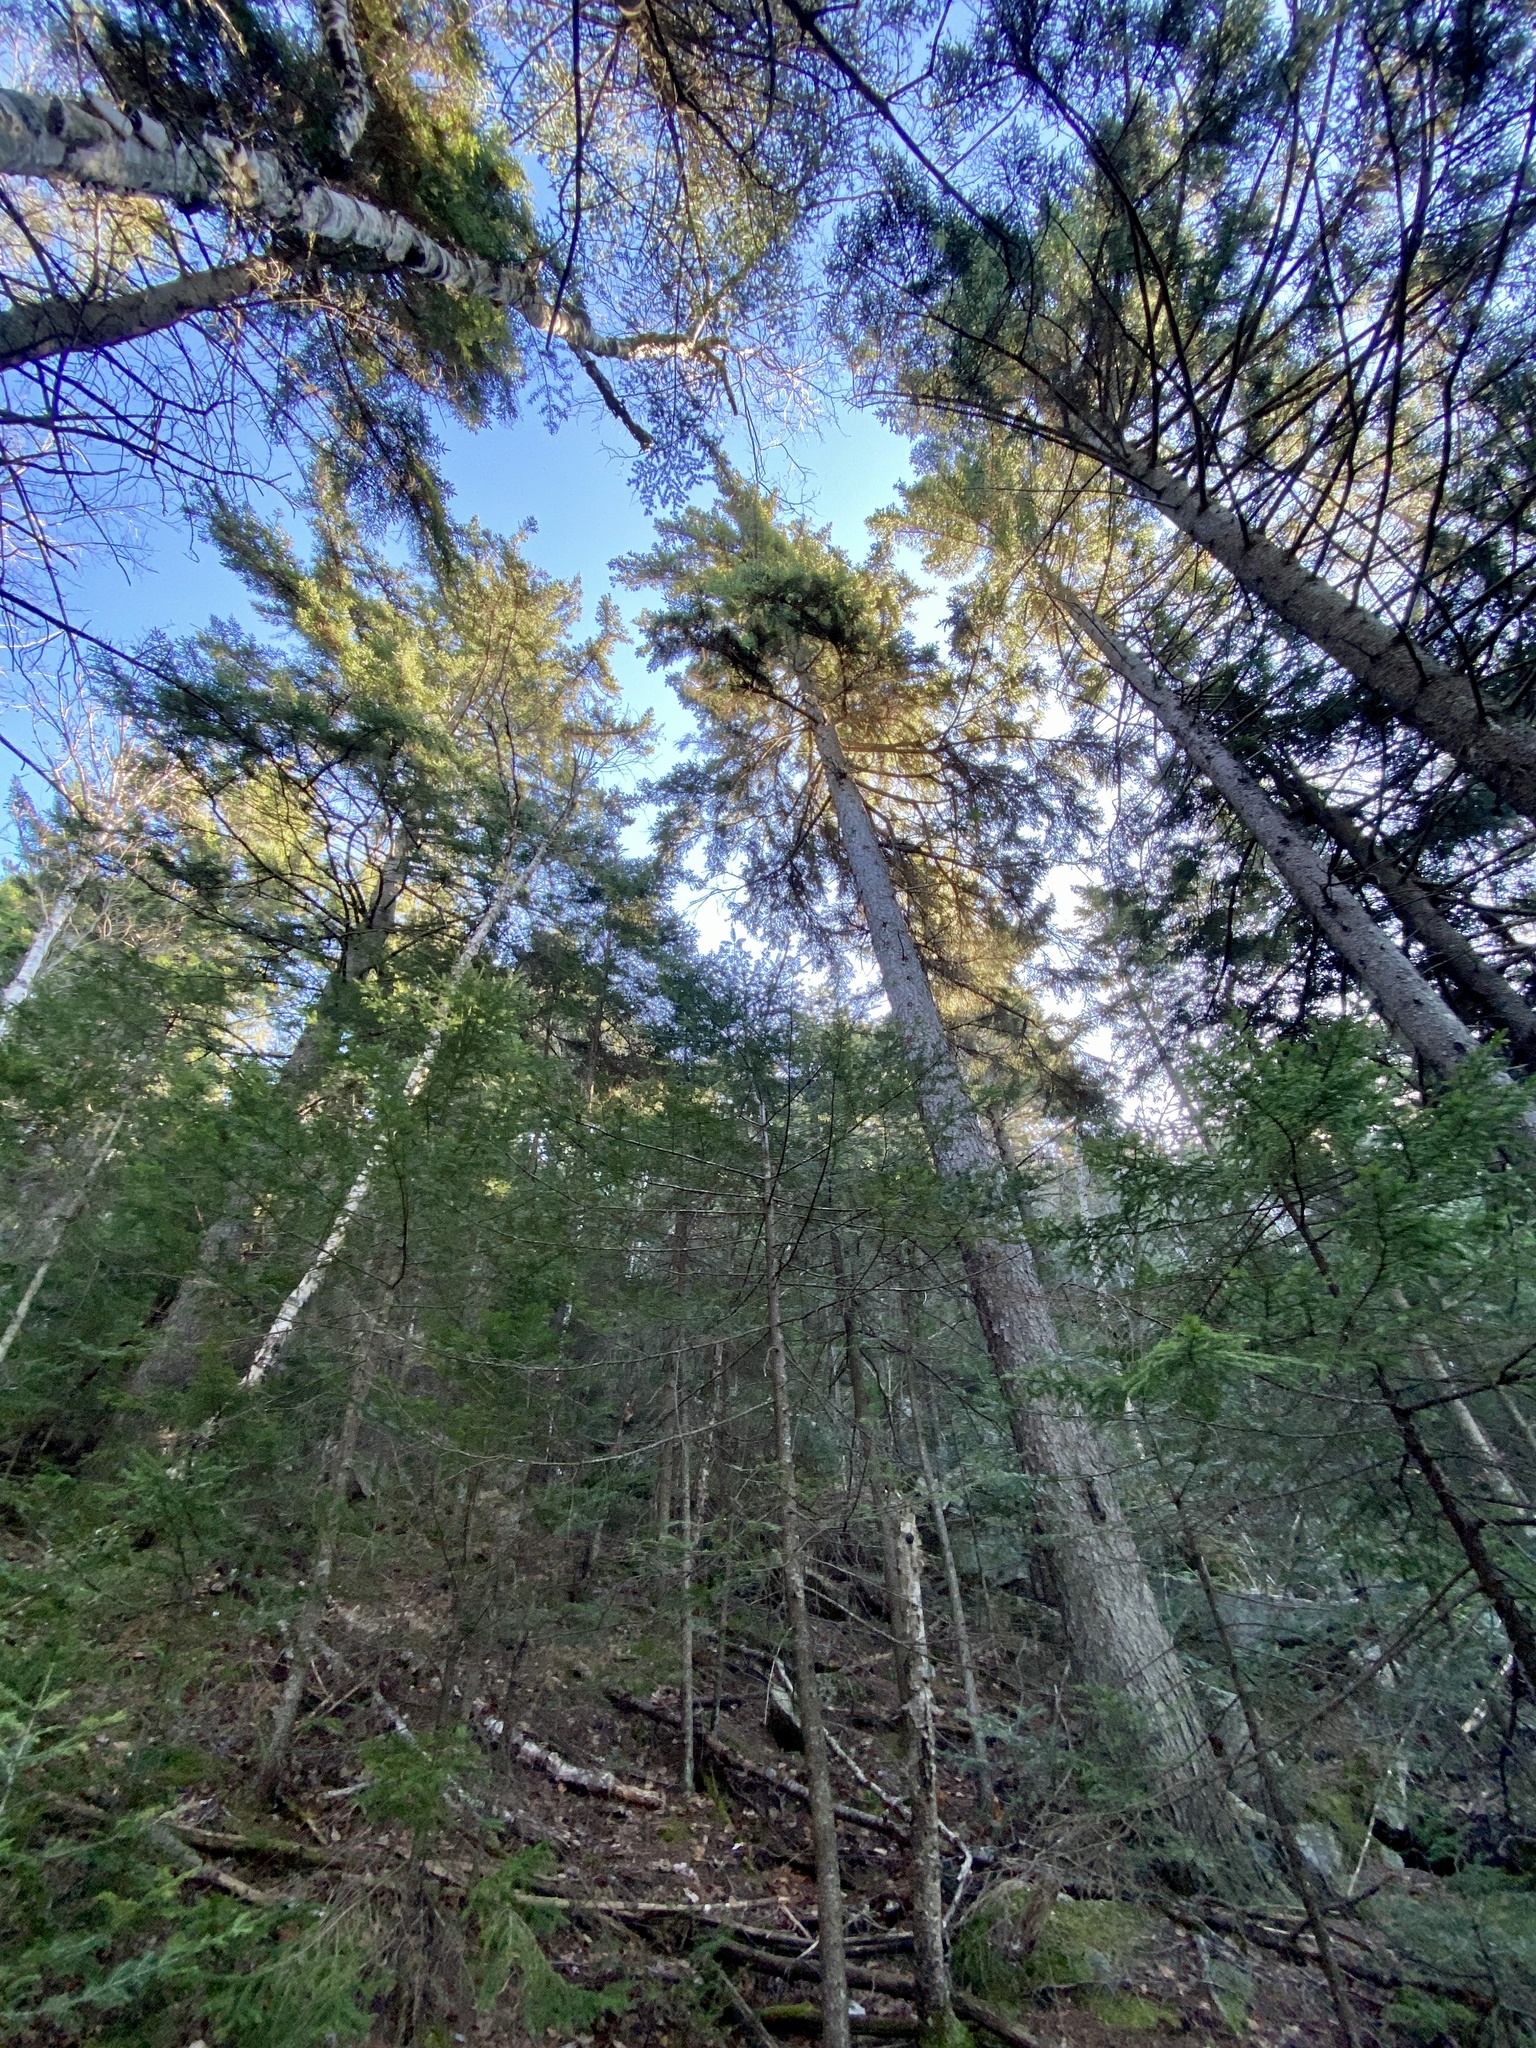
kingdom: Plantae
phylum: Tracheophyta
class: Pinopsida
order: Pinales
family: Pinaceae
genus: Picea
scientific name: Picea rubens
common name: Red spruce
